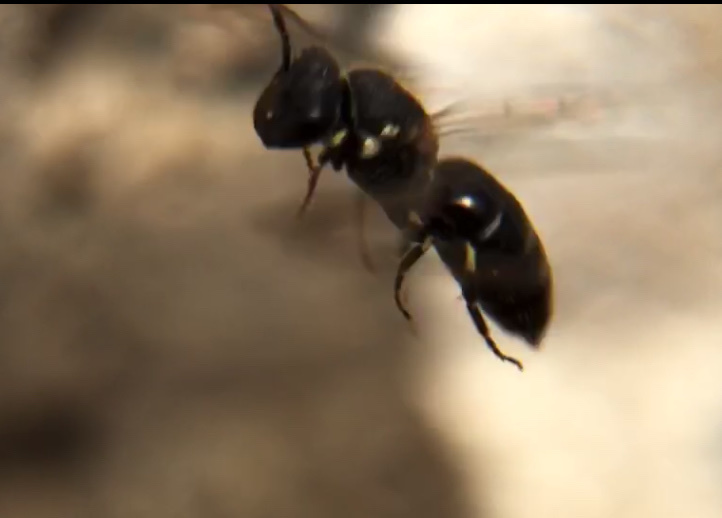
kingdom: Animalia
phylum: Arthropoda
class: Insecta
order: Hymenoptera
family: Colletidae
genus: Hylaeus
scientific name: Hylaeus
